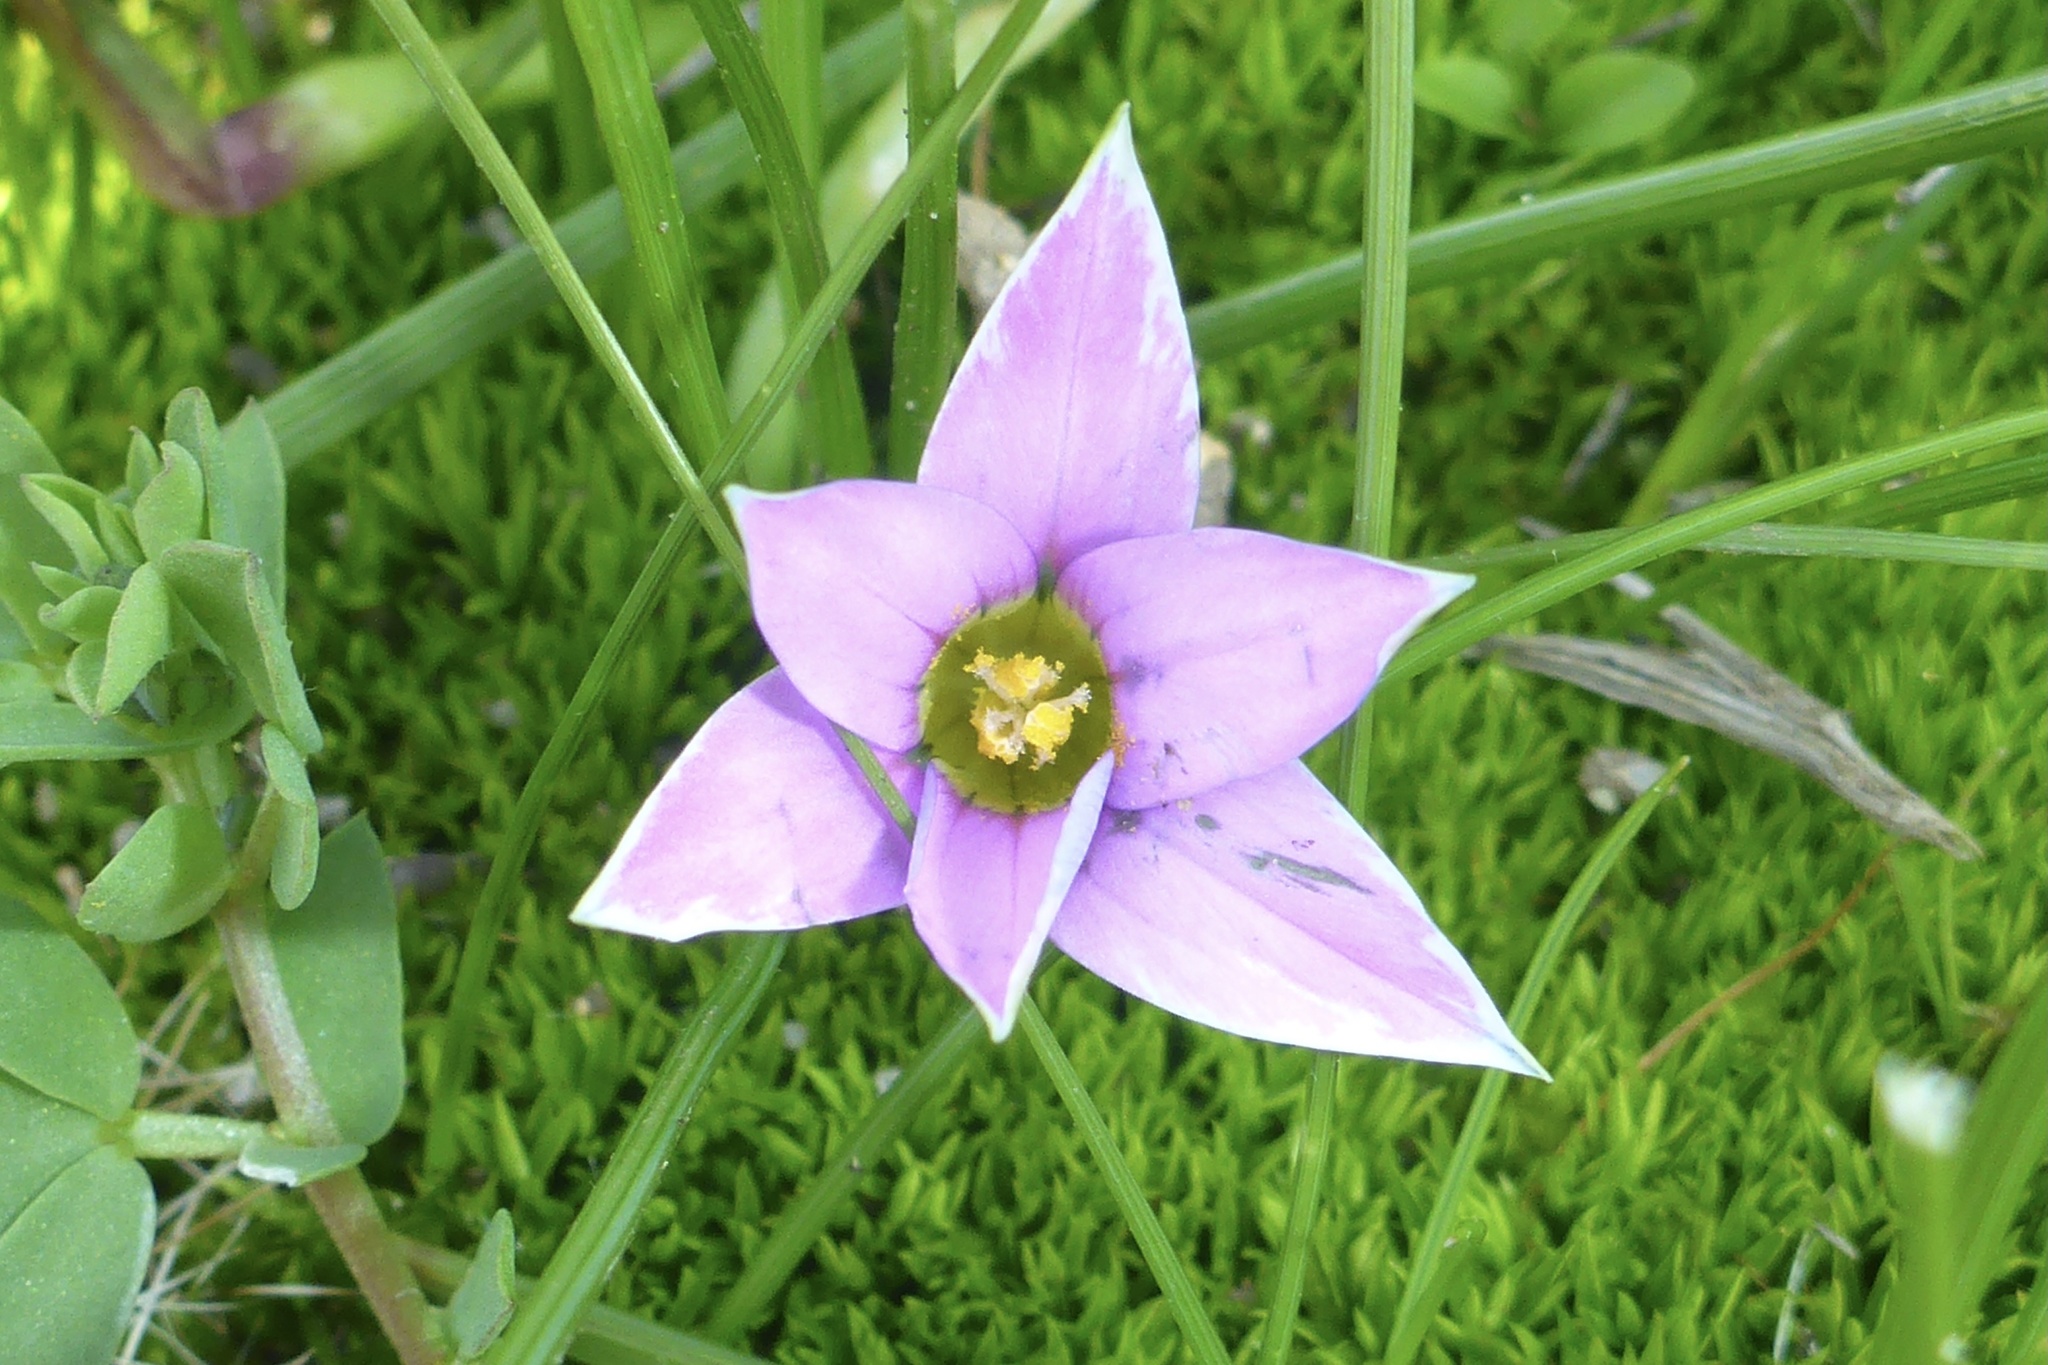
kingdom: Plantae
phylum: Tracheophyta
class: Liliopsida
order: Asparagales
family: Iridaceae
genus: Romulea
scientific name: Romulea rosea
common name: Oniongrass
